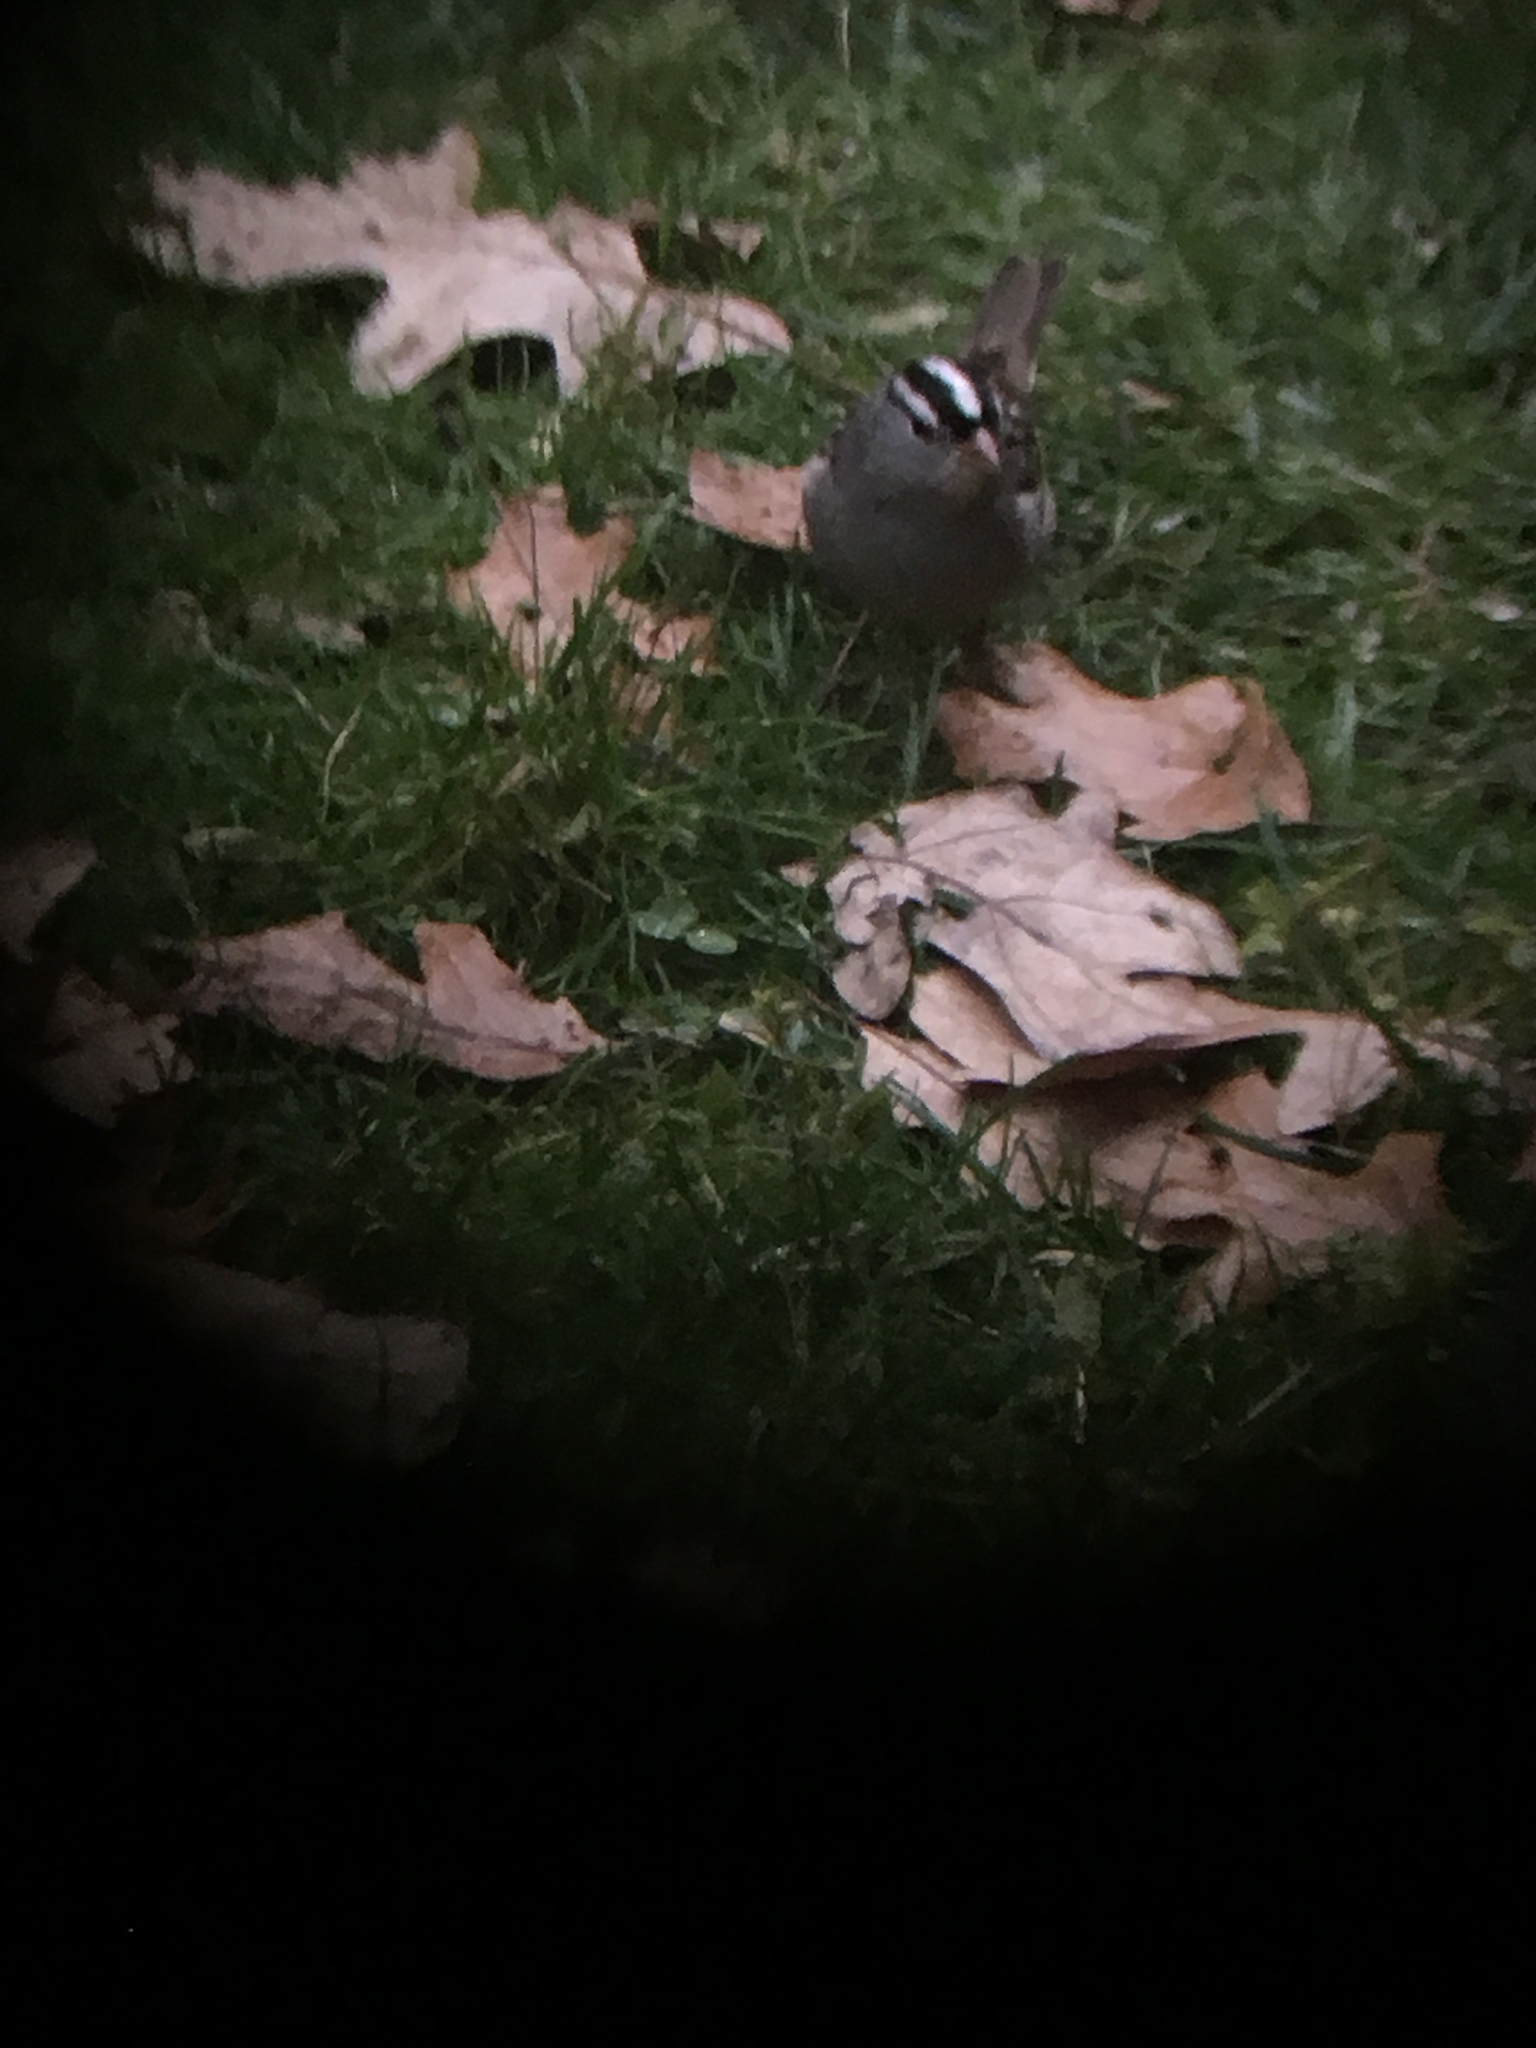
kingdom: Animalia
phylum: Chordata
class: Aves
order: Passeriformes
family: Passerellidae
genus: Zonotrichia
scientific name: Zonotrichia leucophrys
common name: White-crowned sparrow
